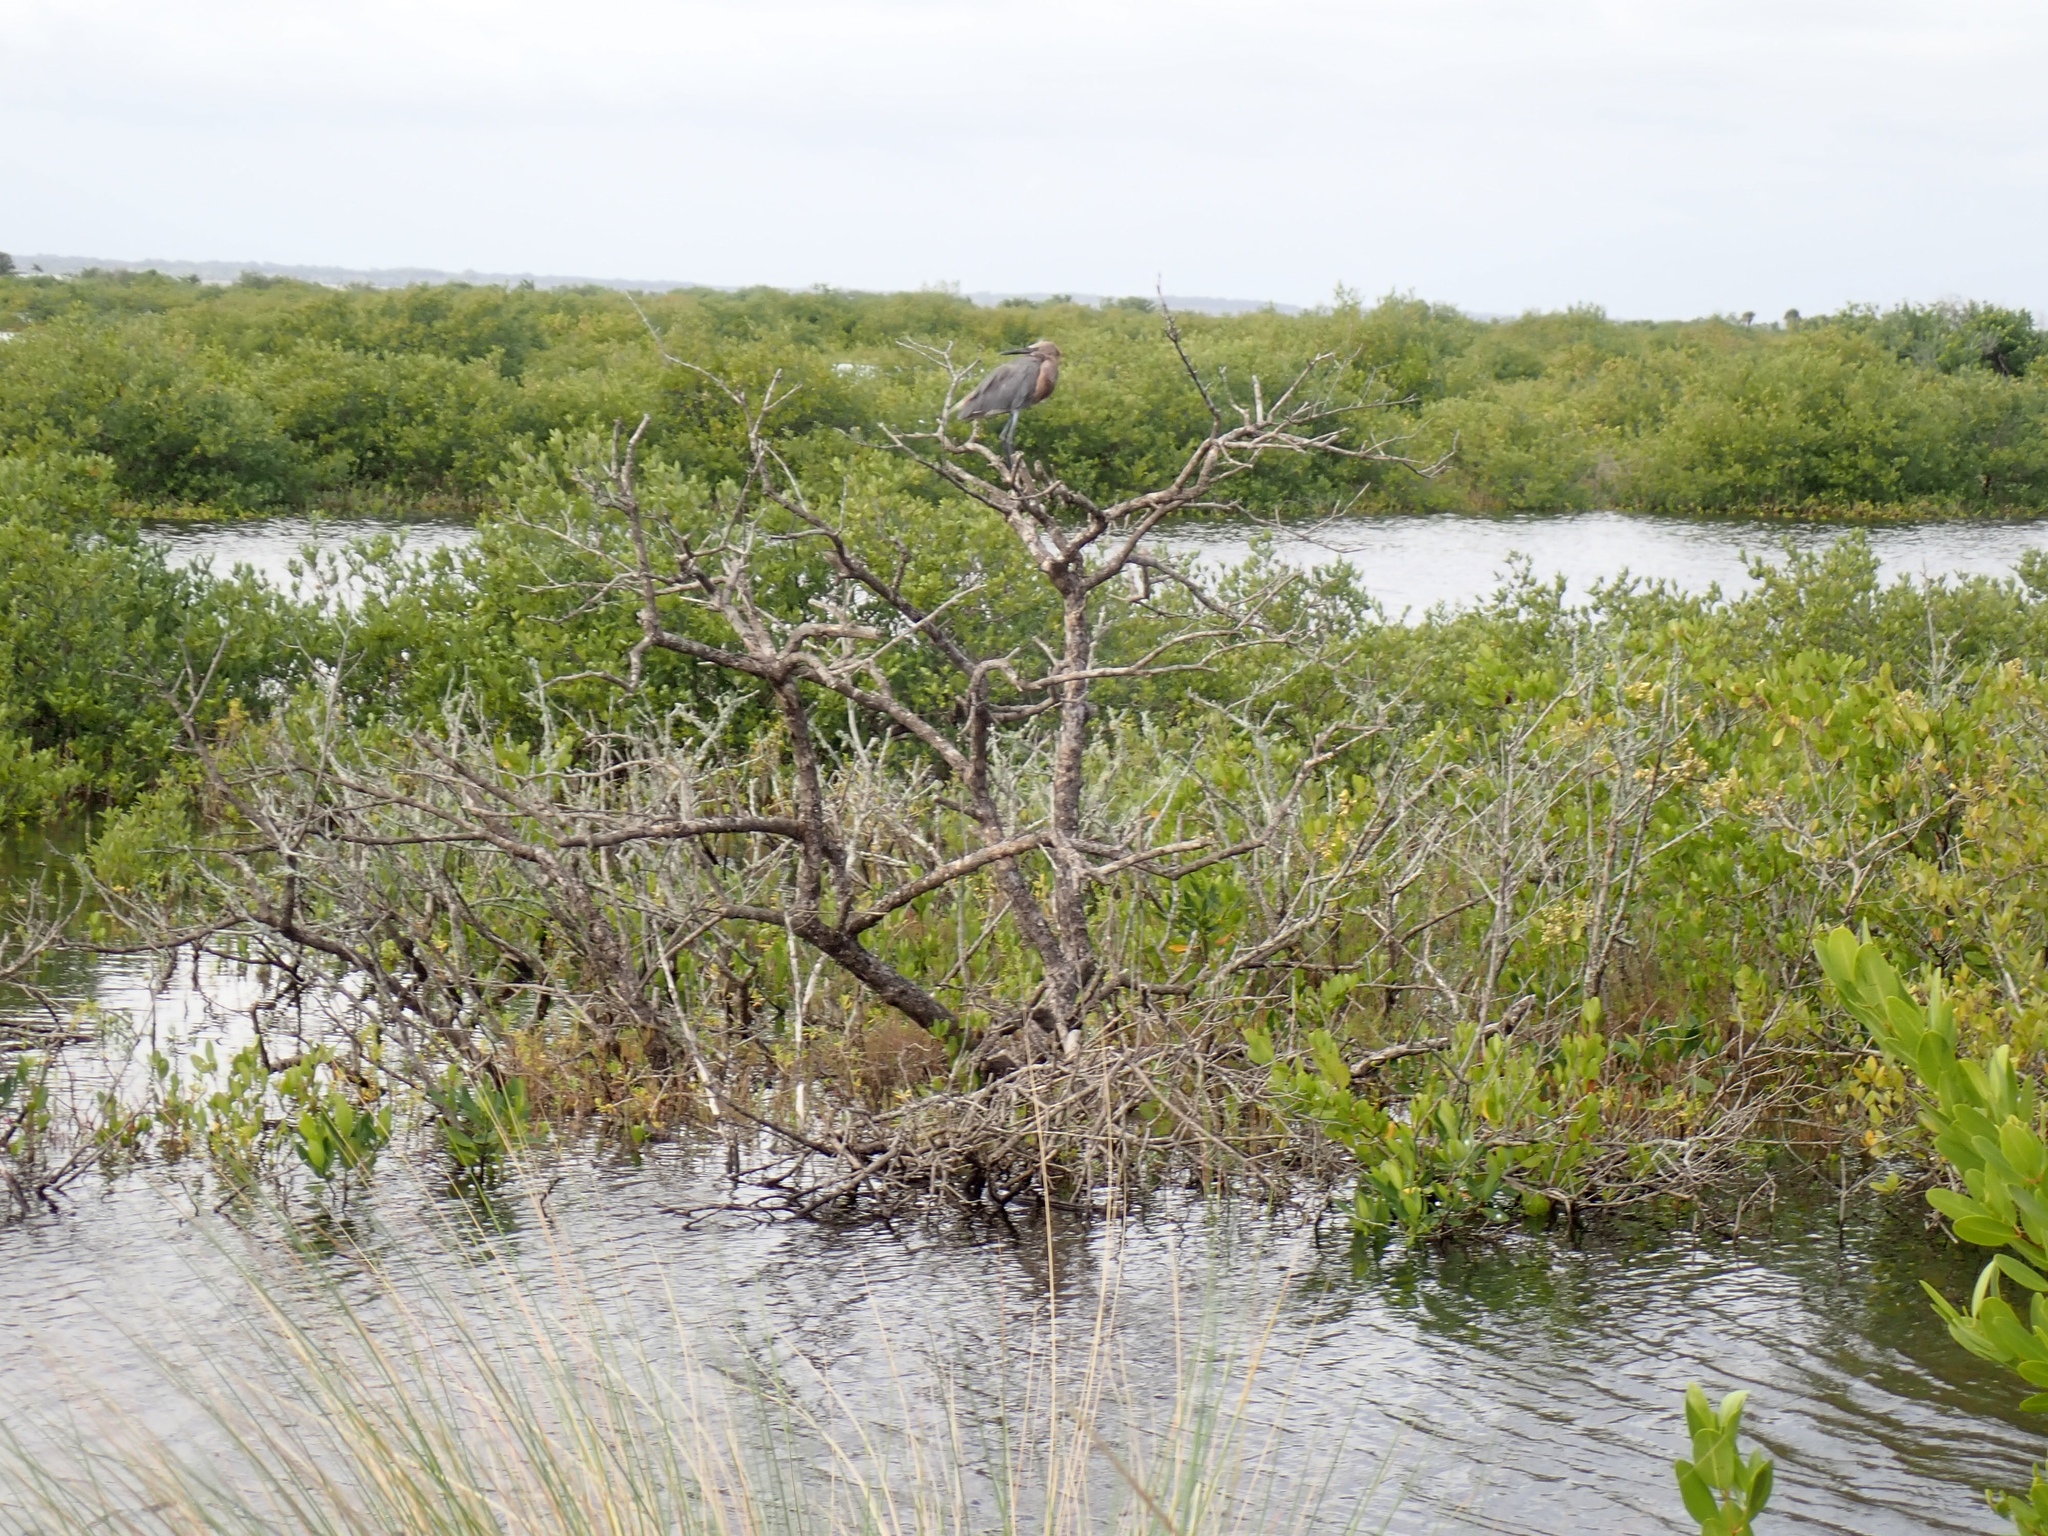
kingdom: Animalia
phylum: Chordata
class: Aves
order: Pelecaniformes
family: Ardeidae
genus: Egretta
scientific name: Egretta rufescens
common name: Reddish egret
